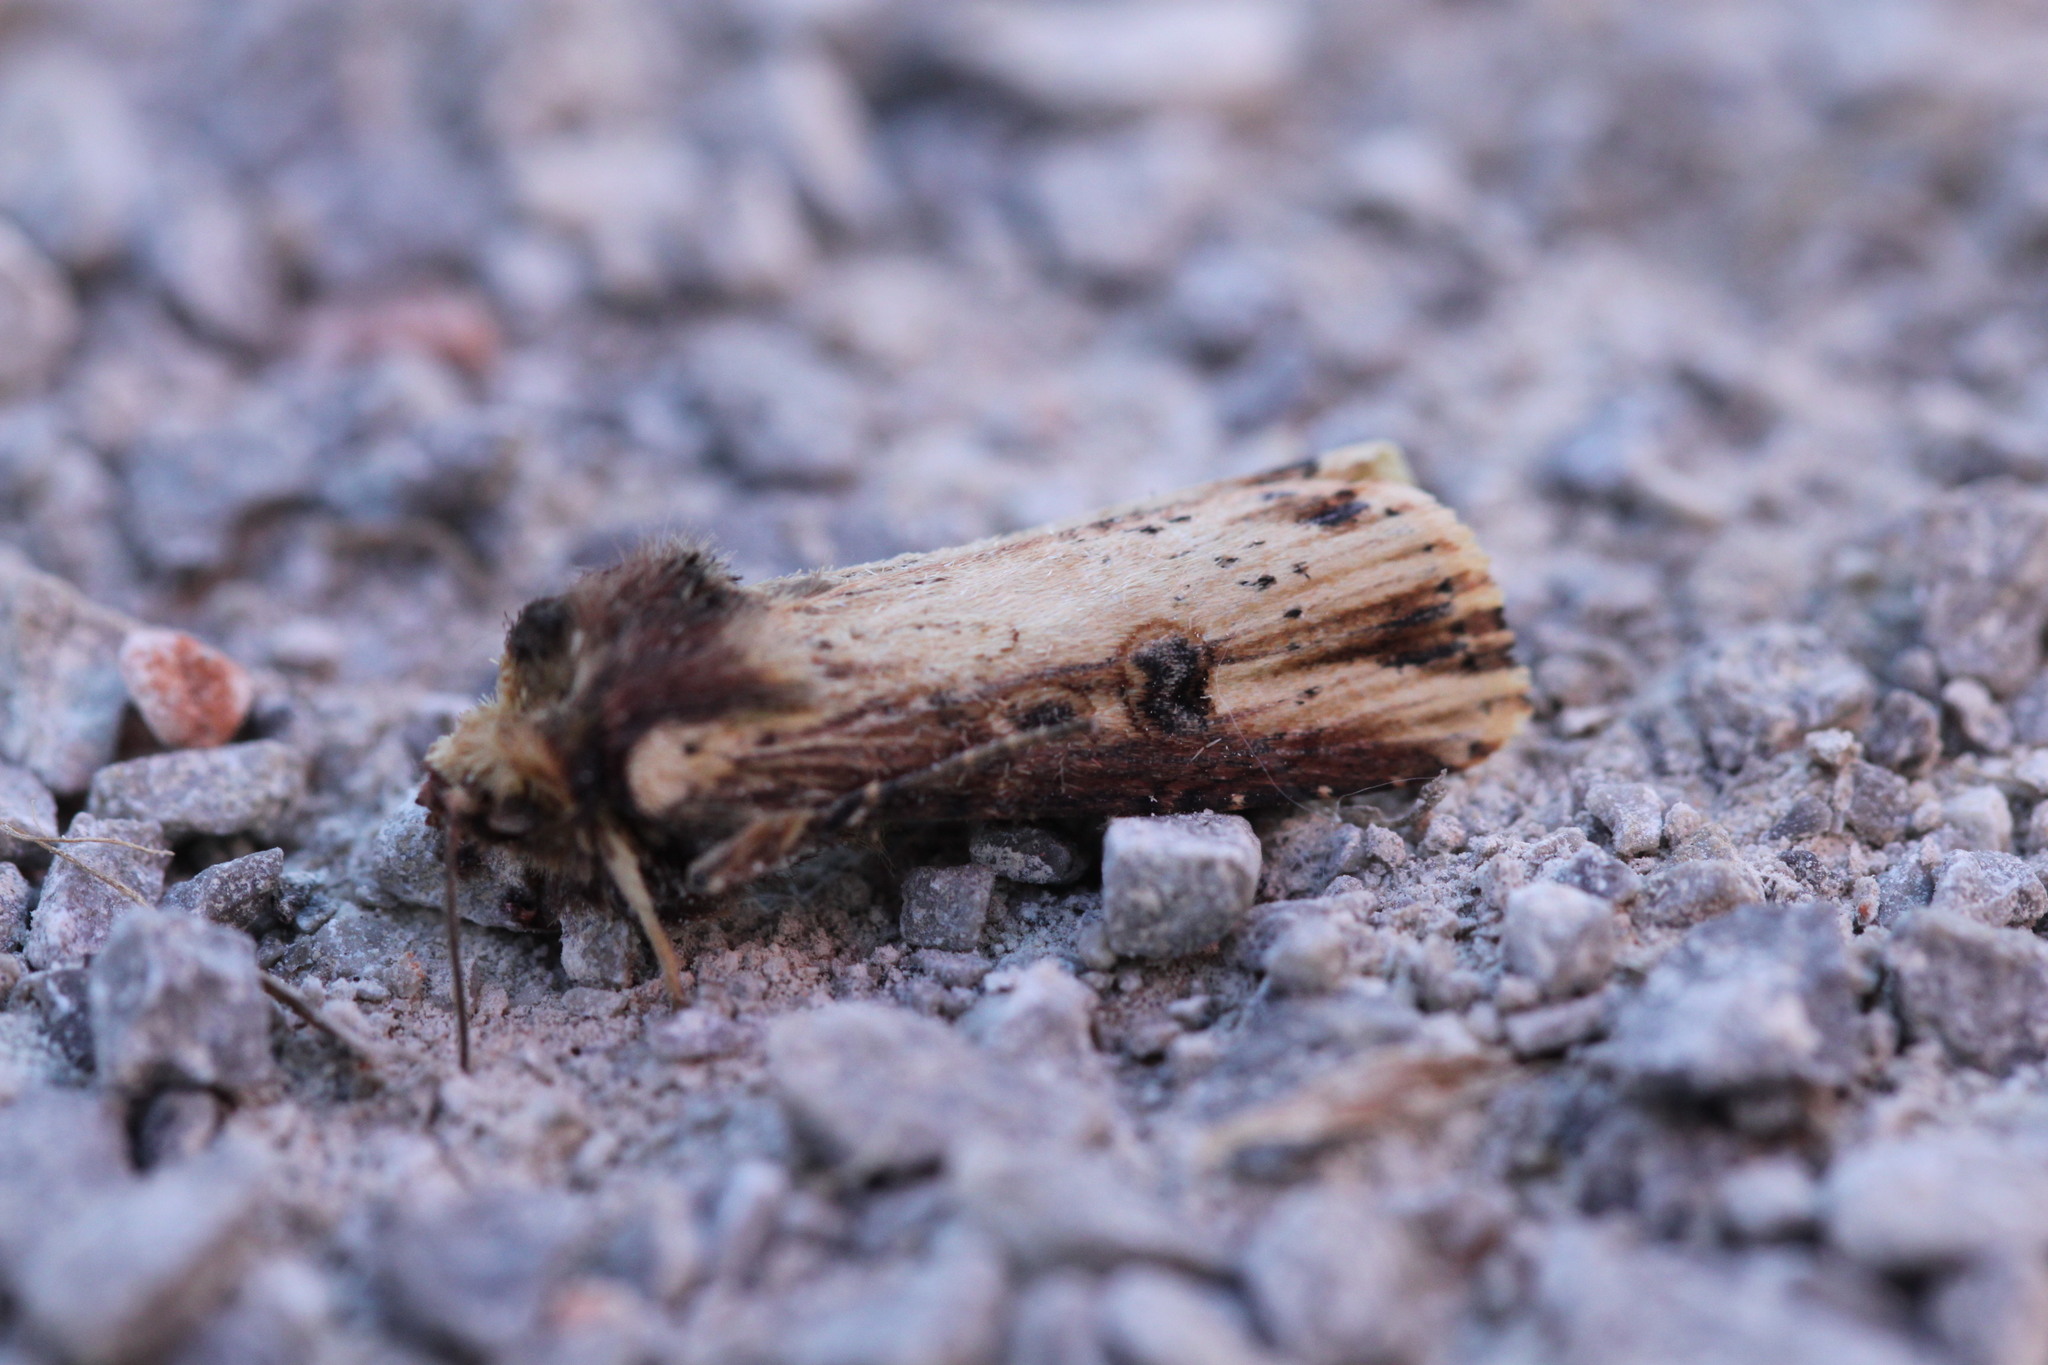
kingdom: Animalia
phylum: Arthropoda
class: Insecta
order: Lepidoptera
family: Noctuidae
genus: Axylia
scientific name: Axylia putris
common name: Flame
